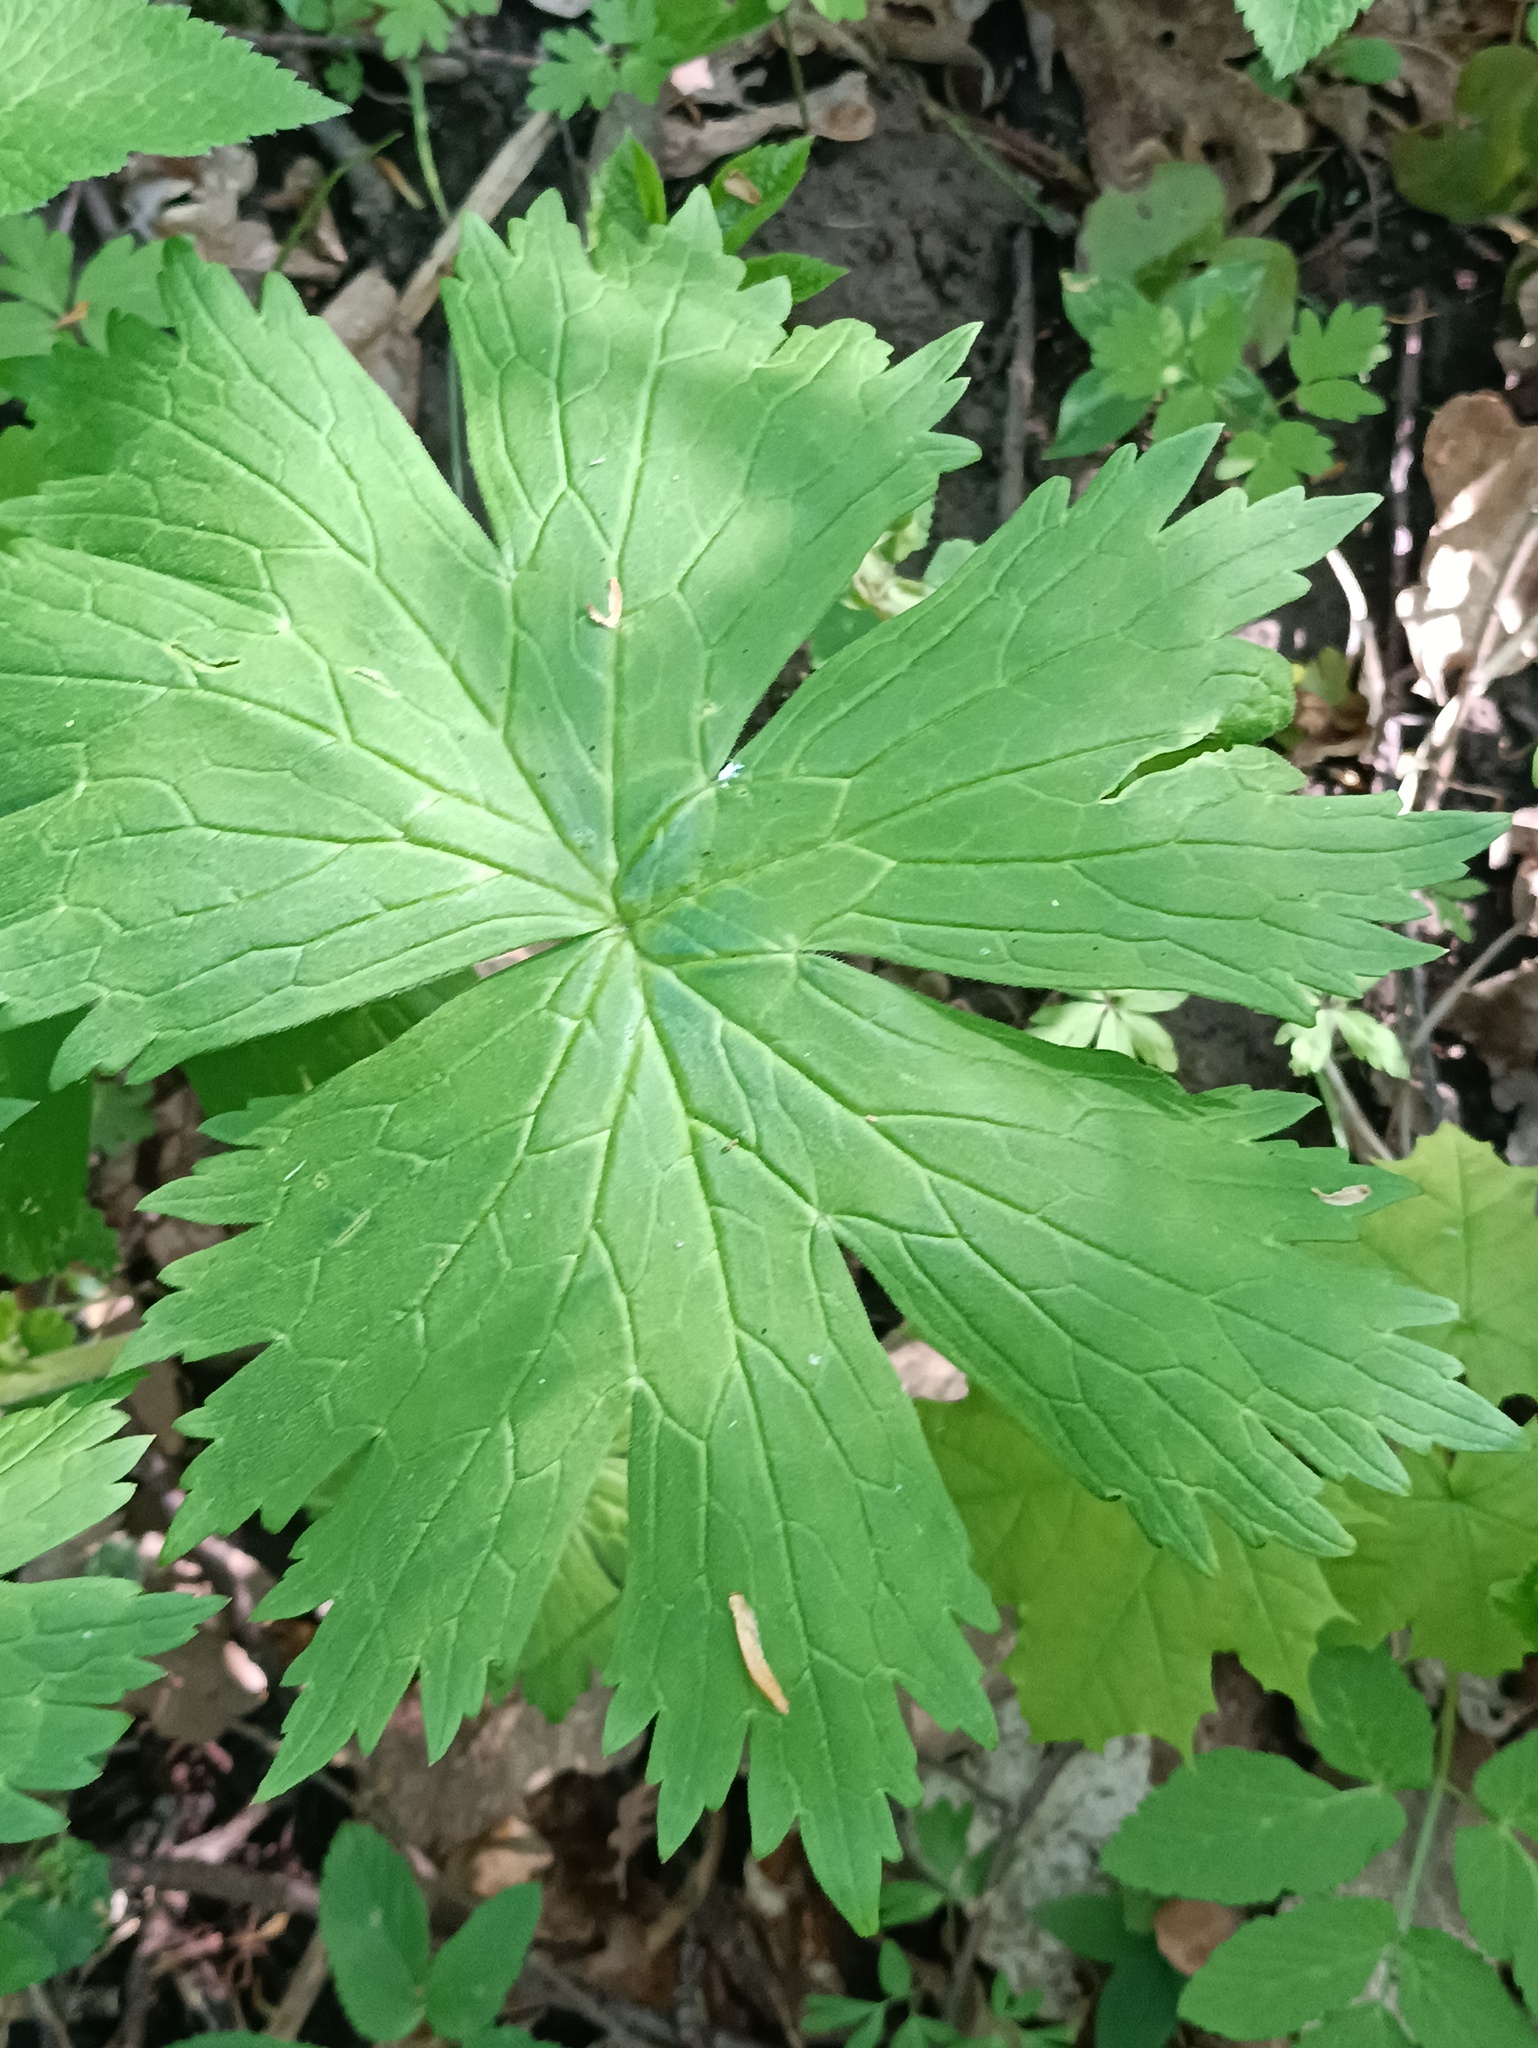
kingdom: Plantae
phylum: Tracheophyta
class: Magnoliopsida
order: Ranunculales
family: Ranunculaceae
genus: Aconitum
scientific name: Aconitum septentrionale
